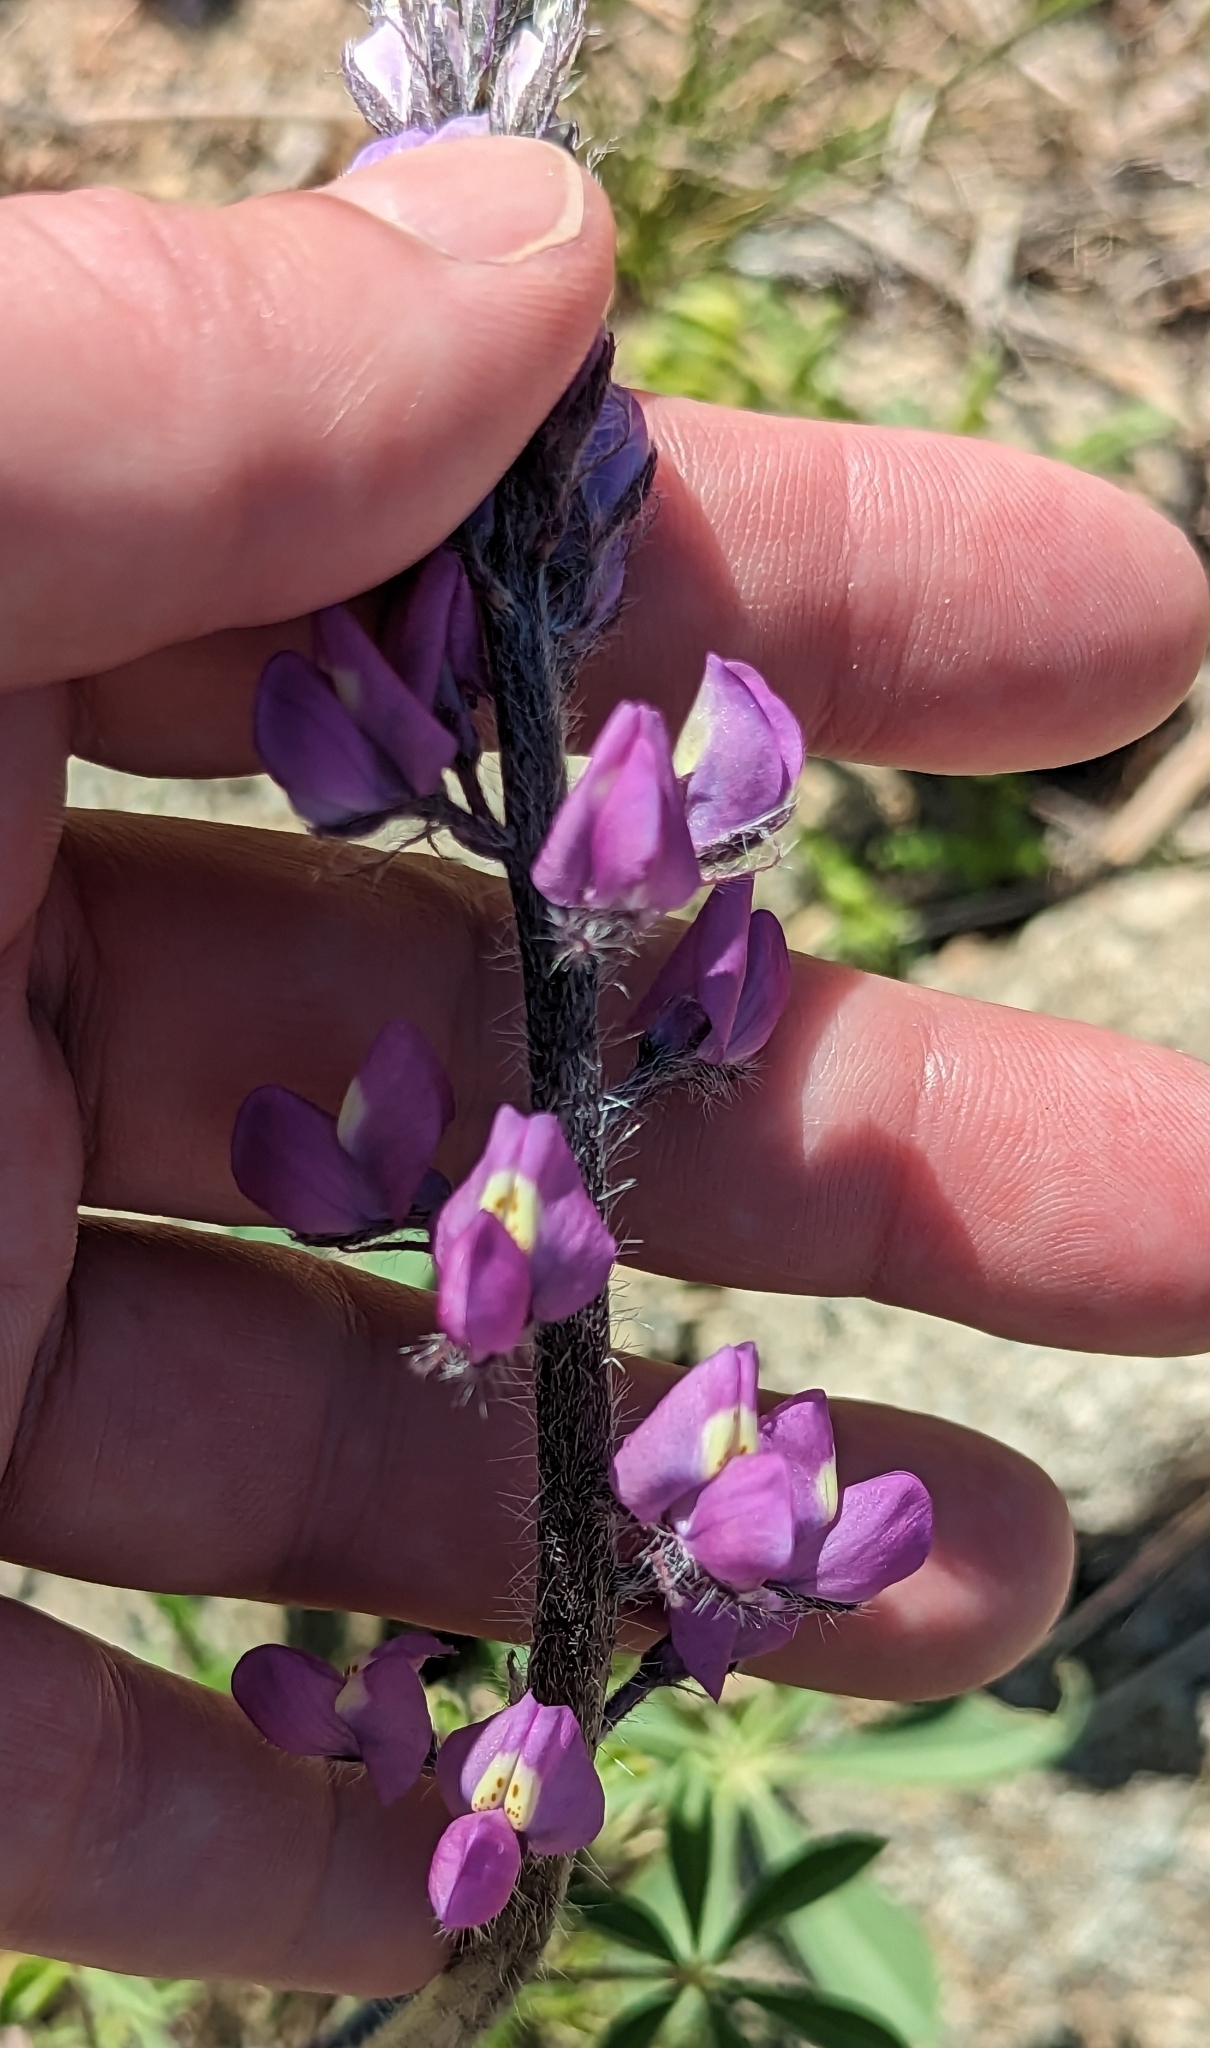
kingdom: Plantae
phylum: Tracheophyta
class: Magnoliopsida
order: Fabales
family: Fabaceae
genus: Lupinus
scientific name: Lupinus arizonicus
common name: Arizona lupine
